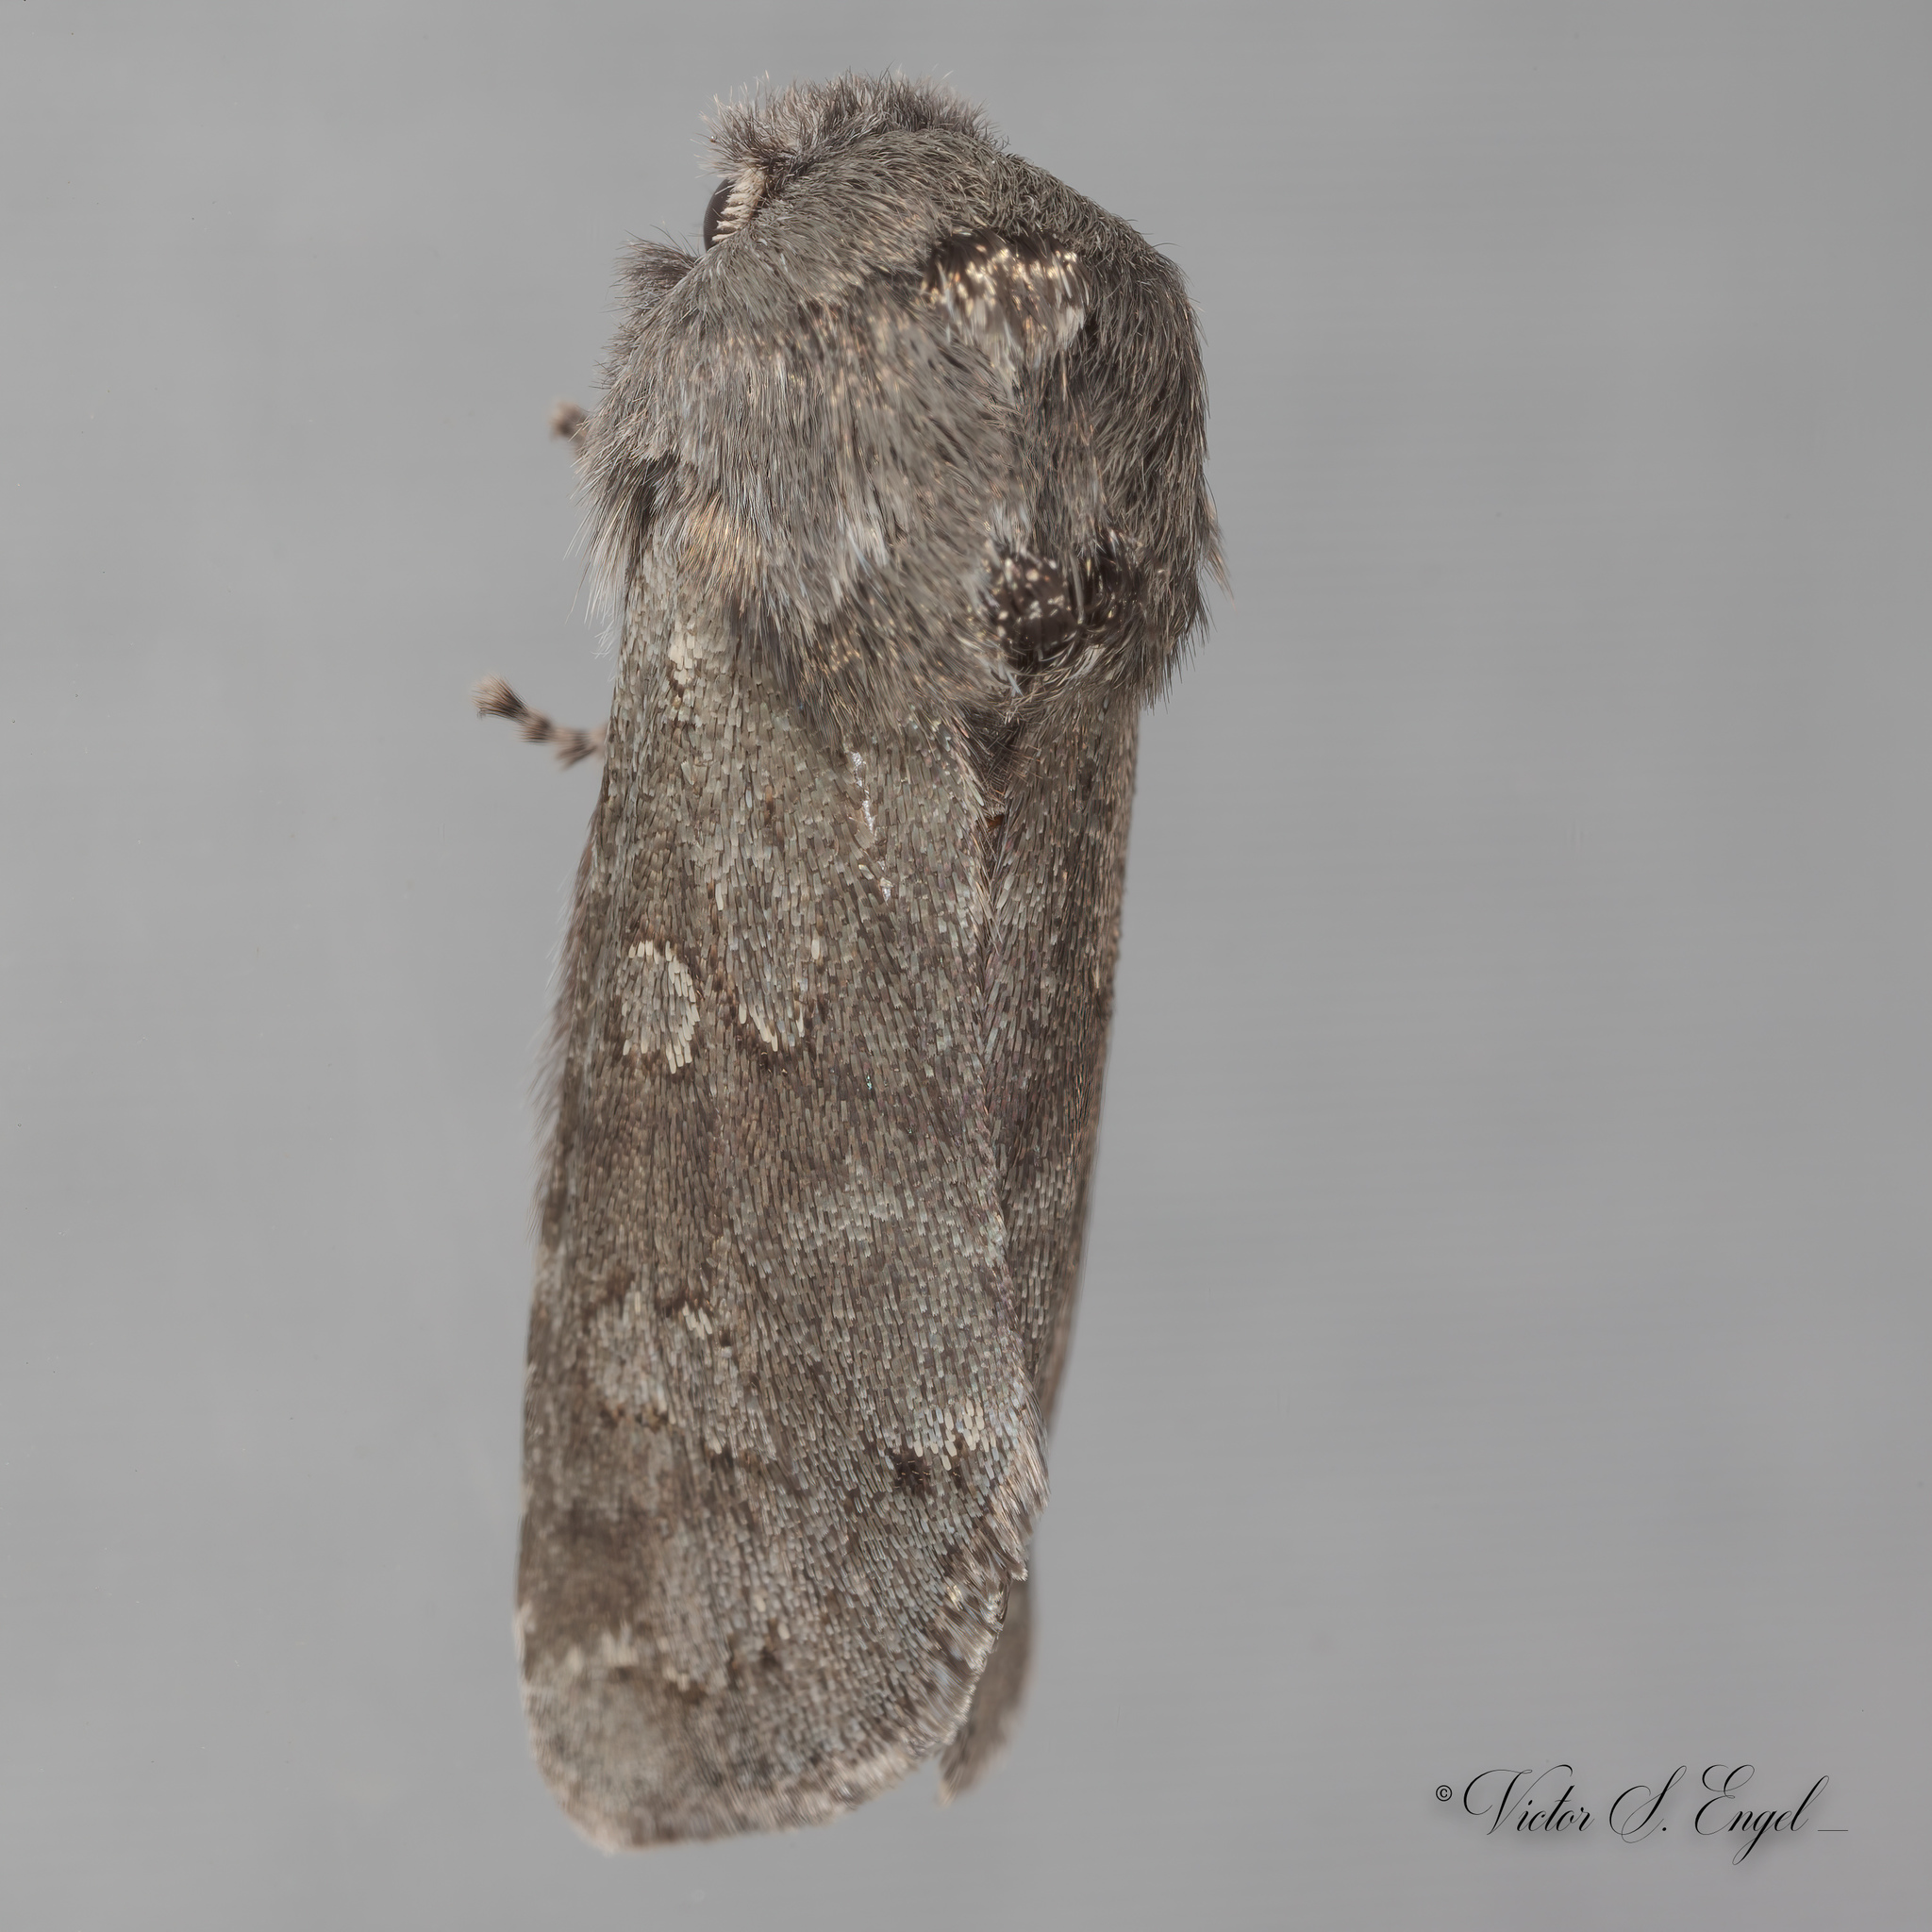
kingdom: Animalia
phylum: Arthropoda
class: Insecta
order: Lepidoptera
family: Noctuidae
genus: Psaphida
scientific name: Psaphida rolandi
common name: Roland's sallow
